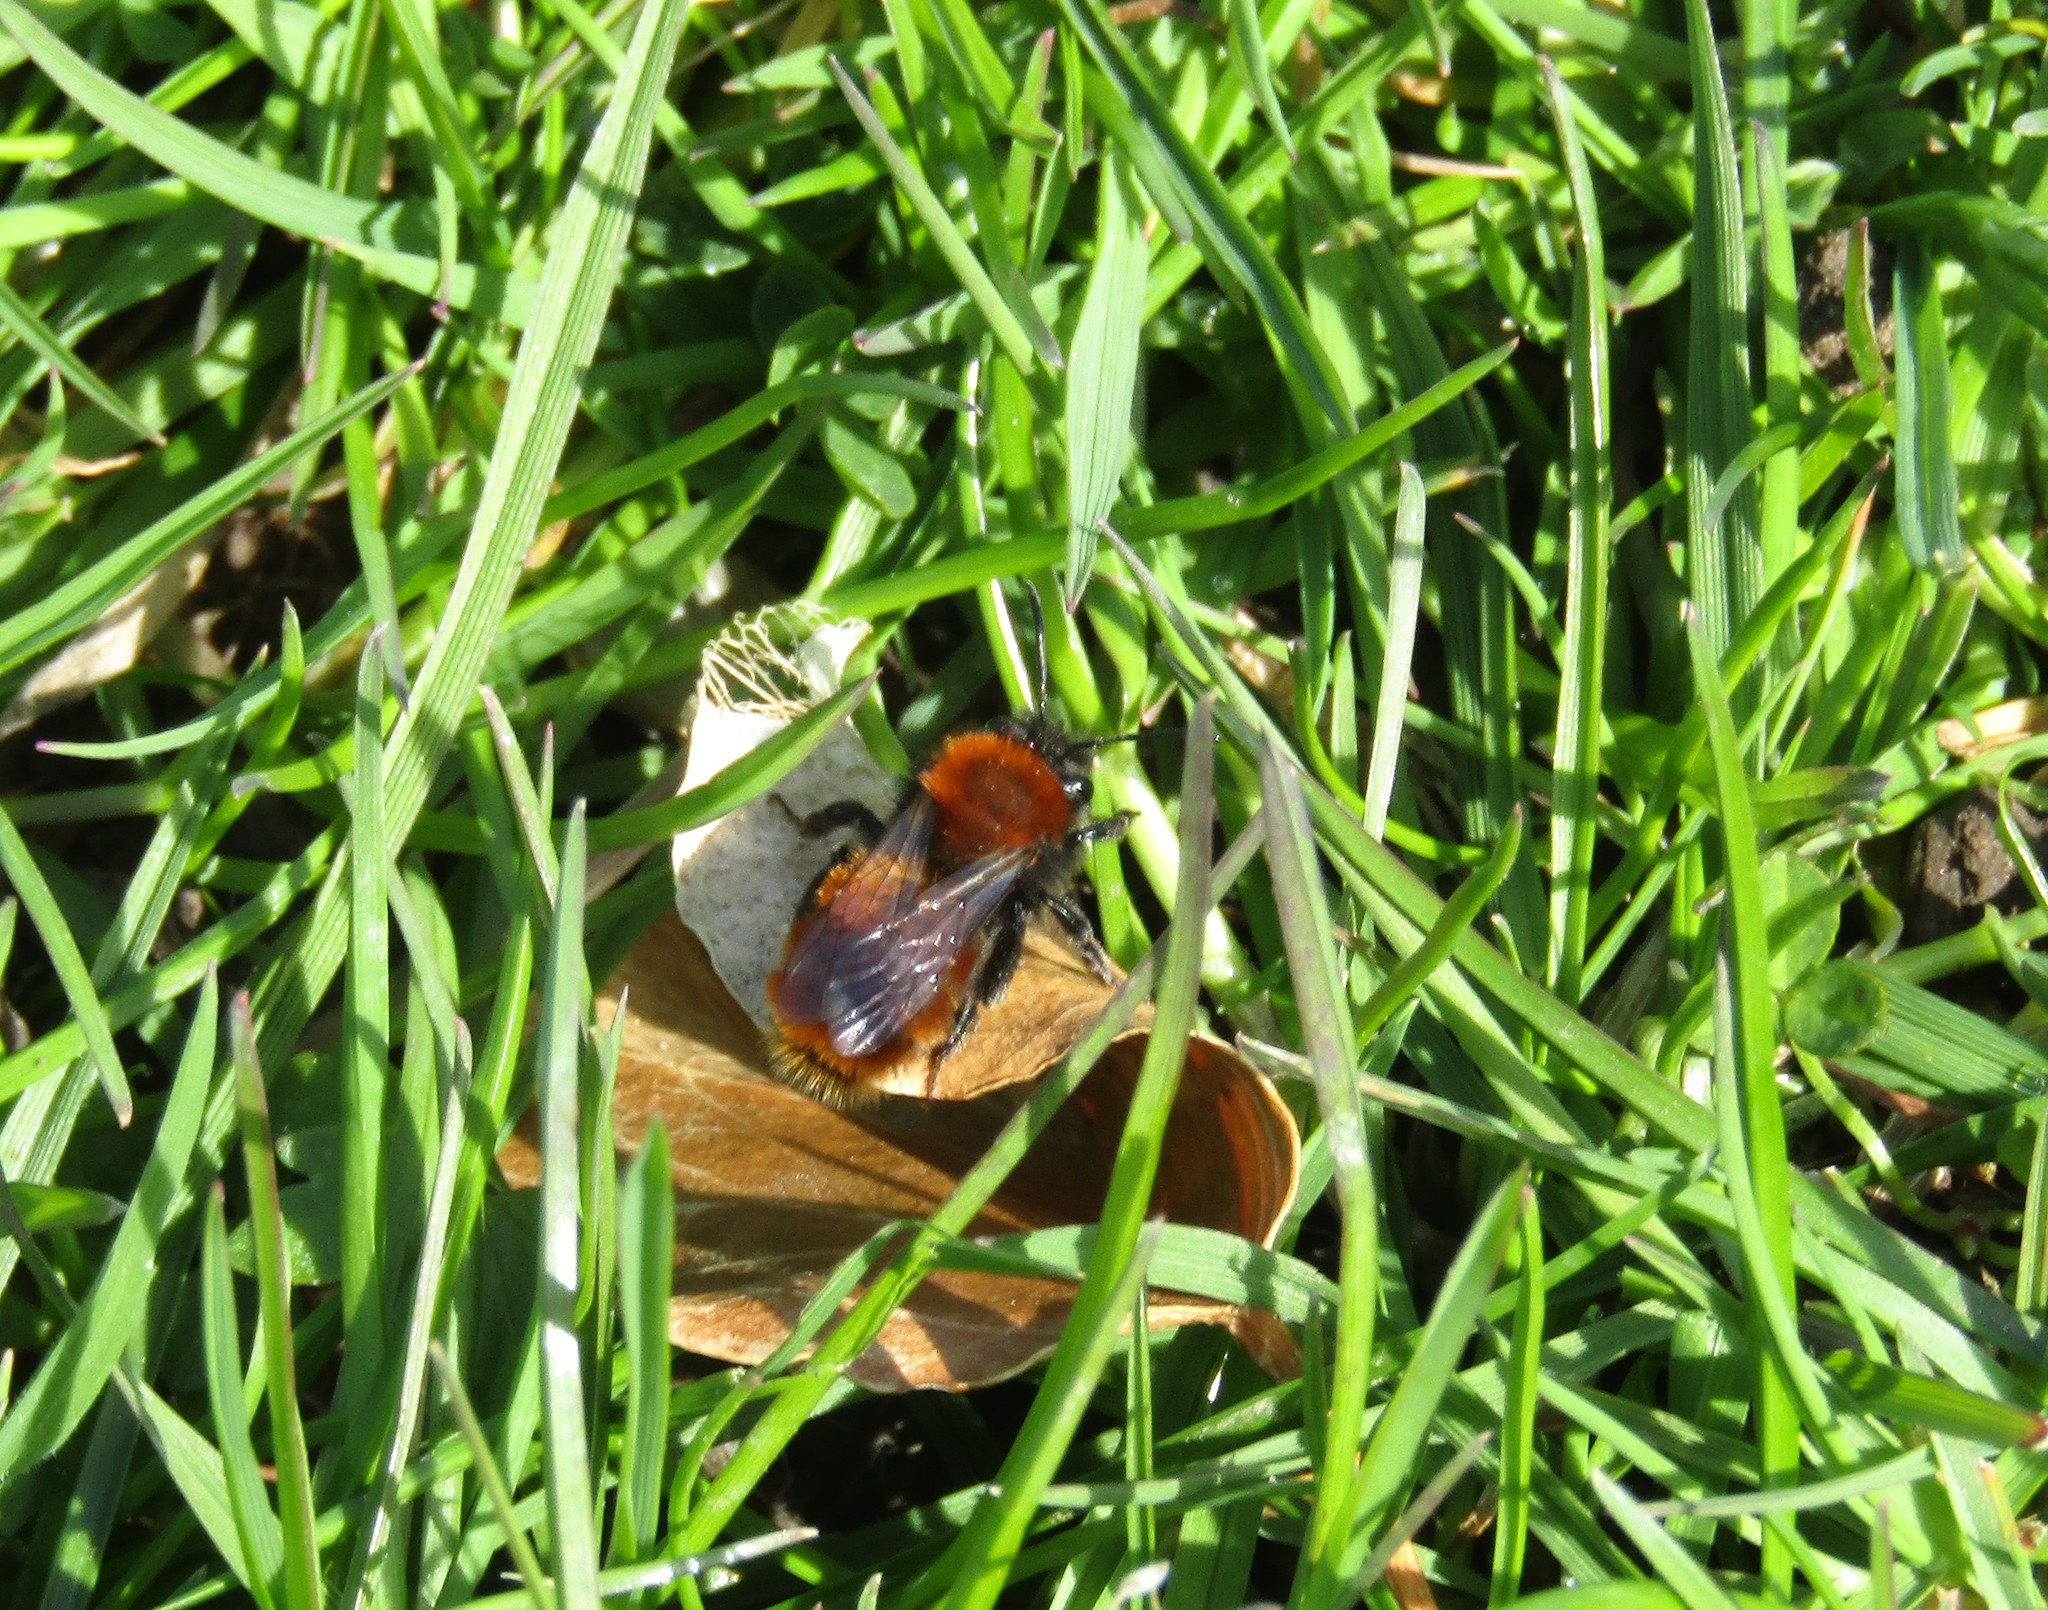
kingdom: Animalia
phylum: Arthropoda
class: Insecta
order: Hymenoptera
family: Andrenidae
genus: Andrena
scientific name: Andrena fulva
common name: Tawny mining bee
